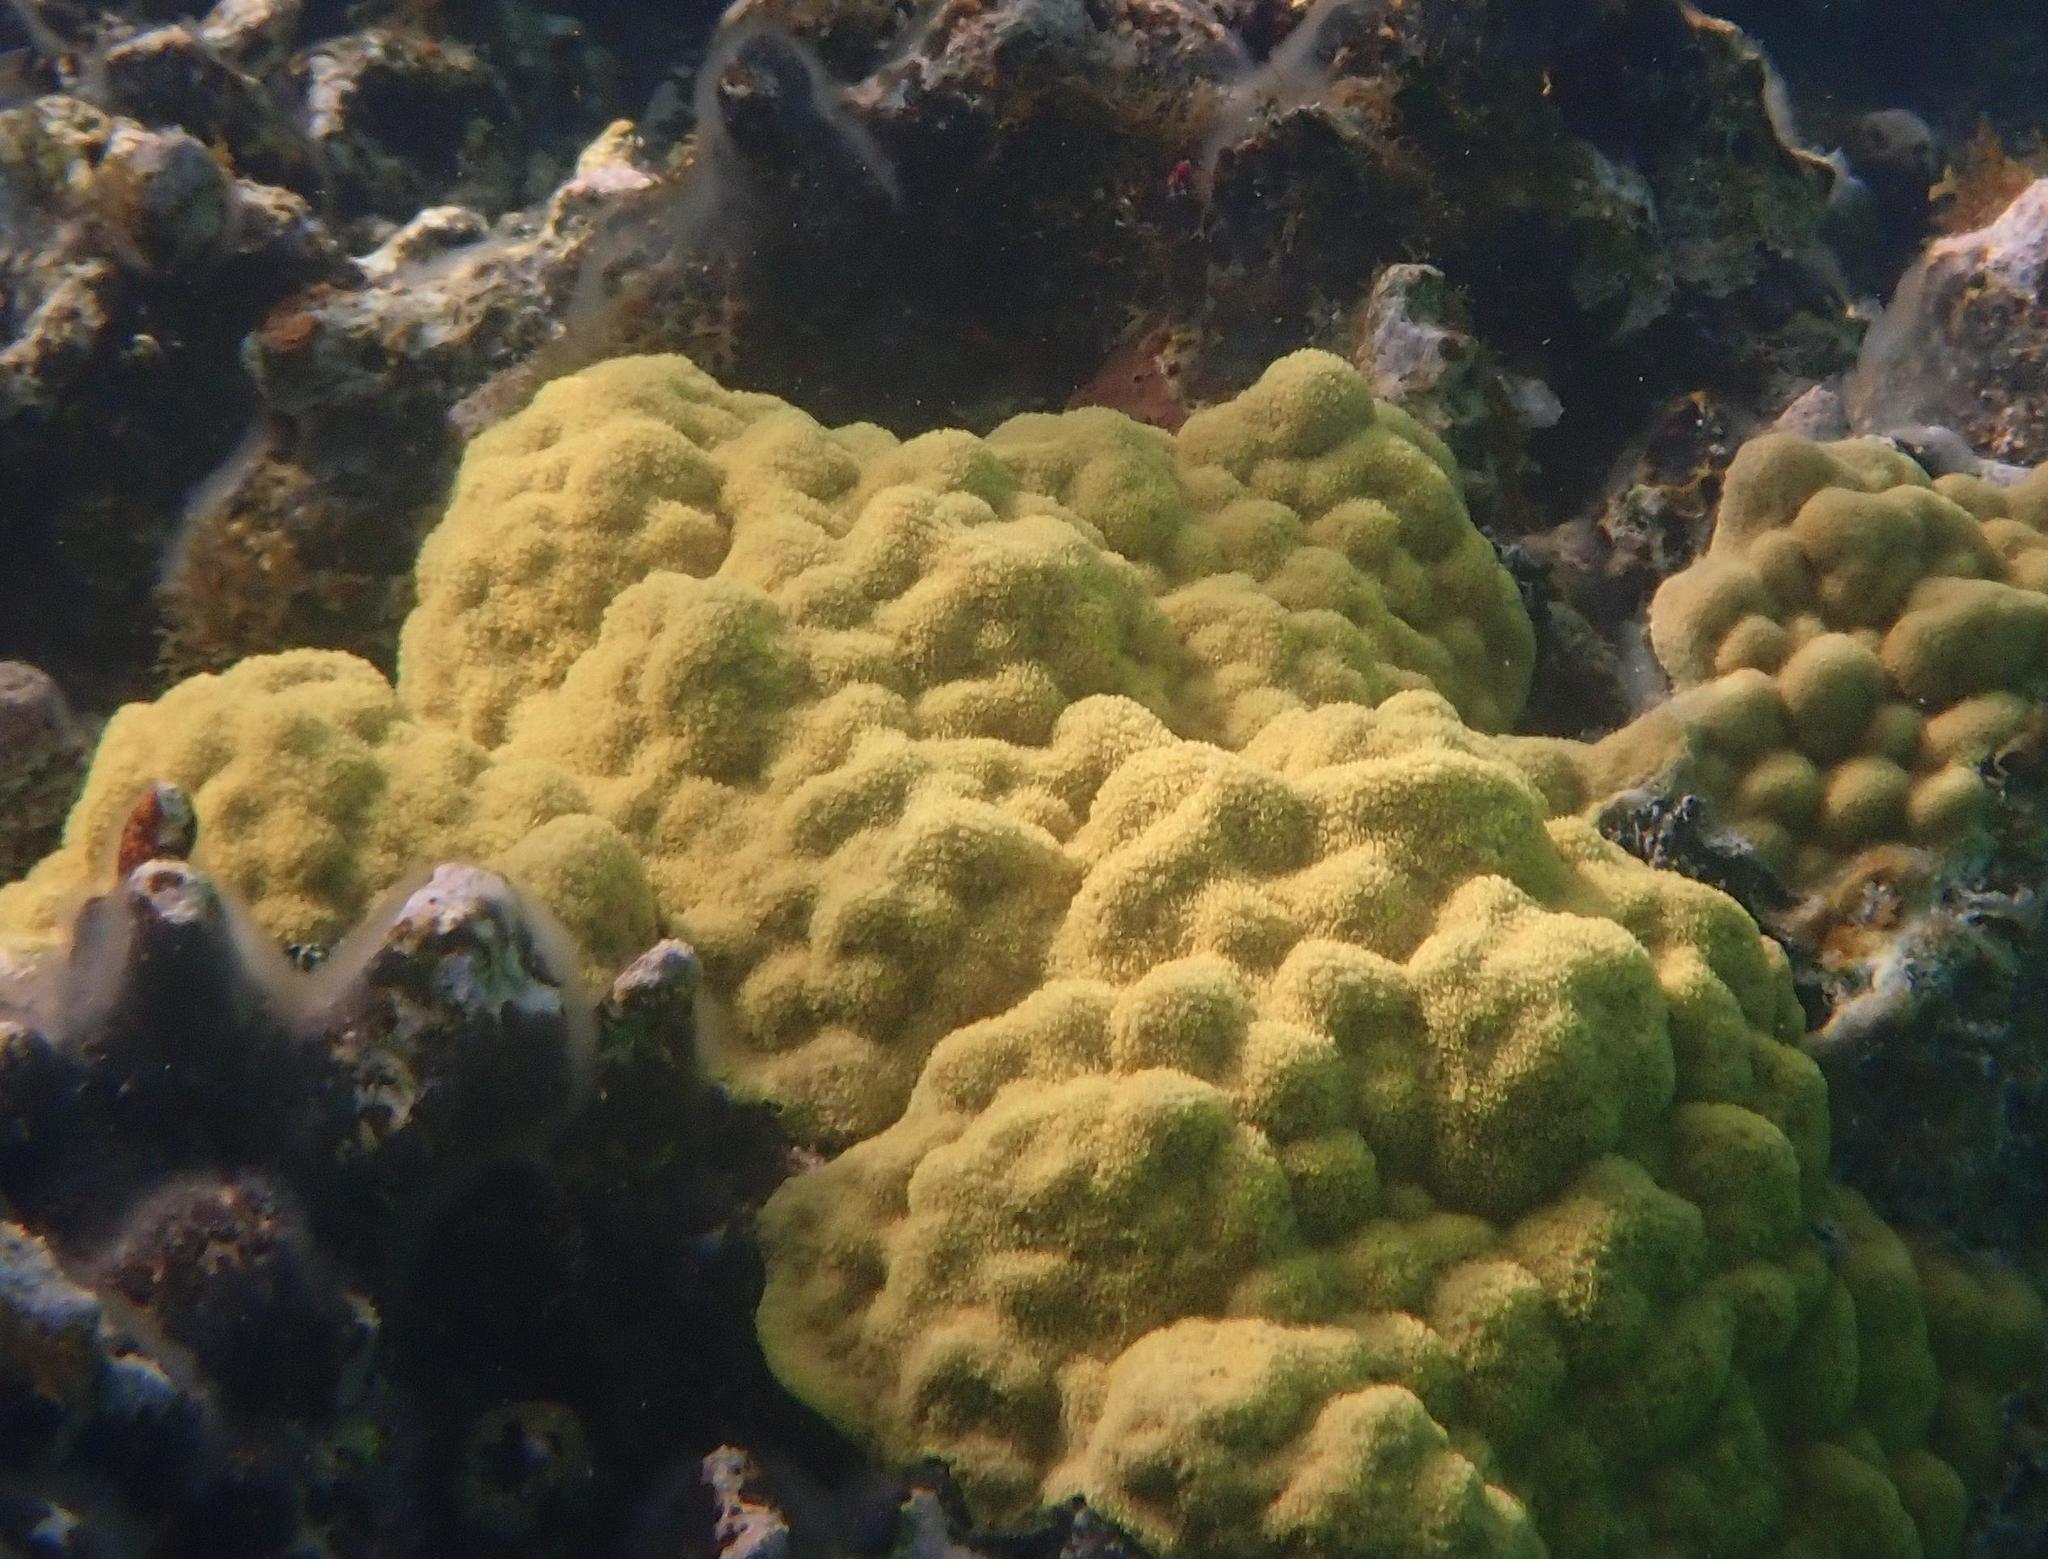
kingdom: Animalia
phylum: Cnidaria
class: Anthozoa
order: Scleractinia
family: Poritidae
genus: Porites
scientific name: Porites astreoides
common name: Mustard hill coral
